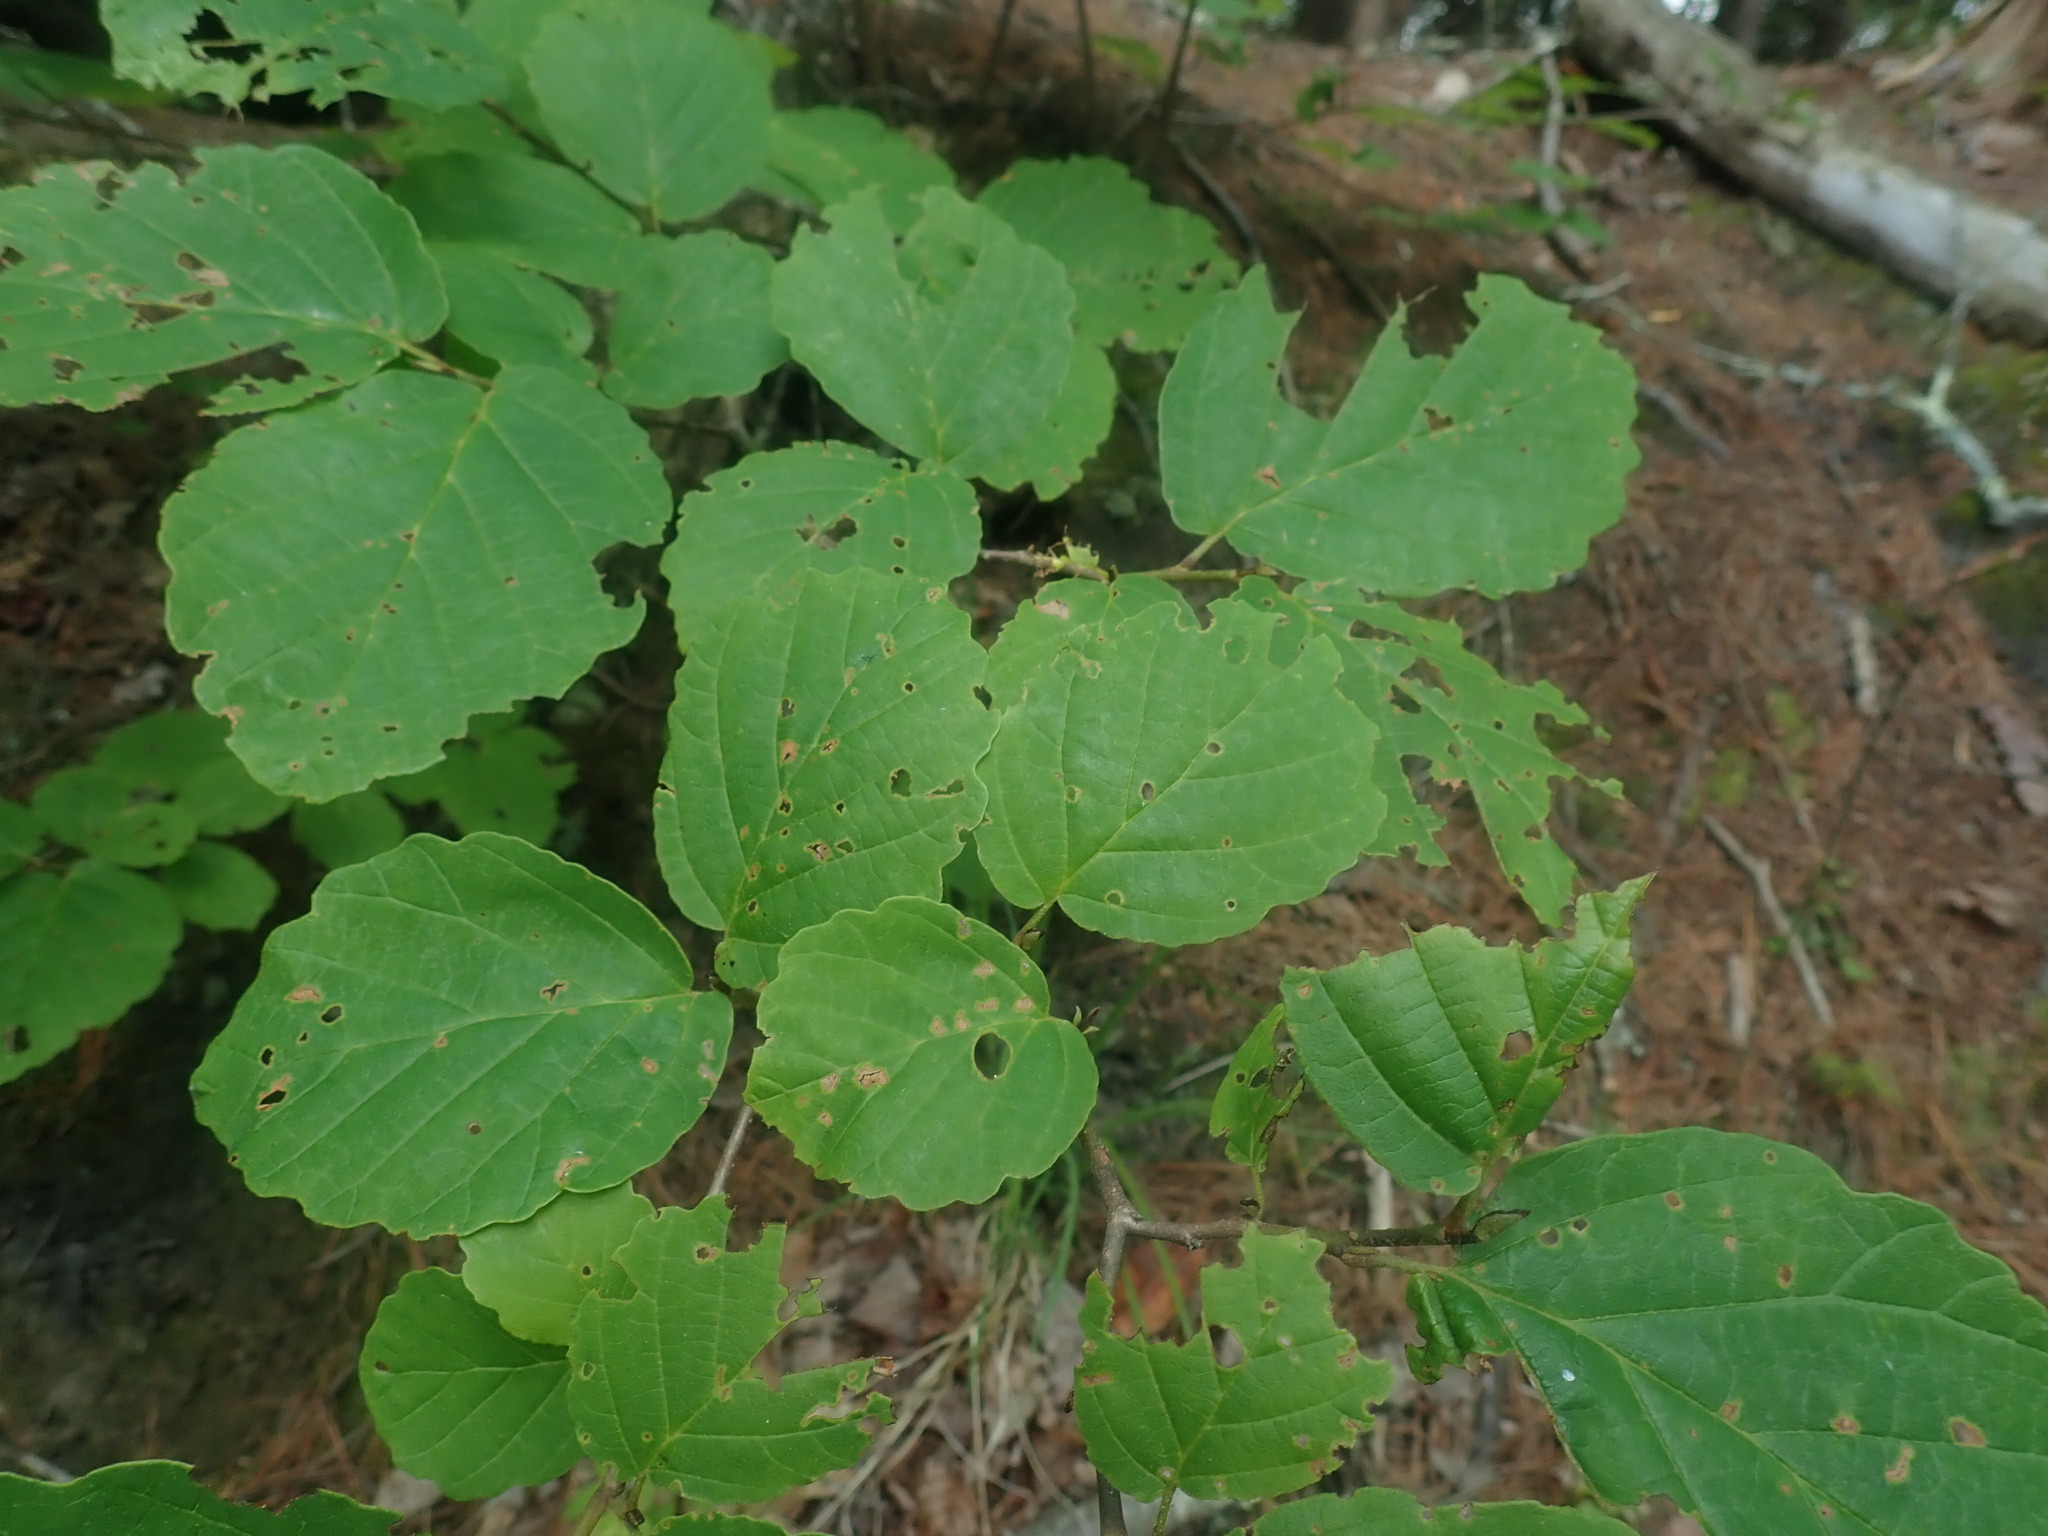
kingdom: Plantae
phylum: Tracheophyta
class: Magnoliopsida
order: Saxifragales
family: Hamamelidaceae
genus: Hamamelis
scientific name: Hamamelis virginiana
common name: Witch-hazel
